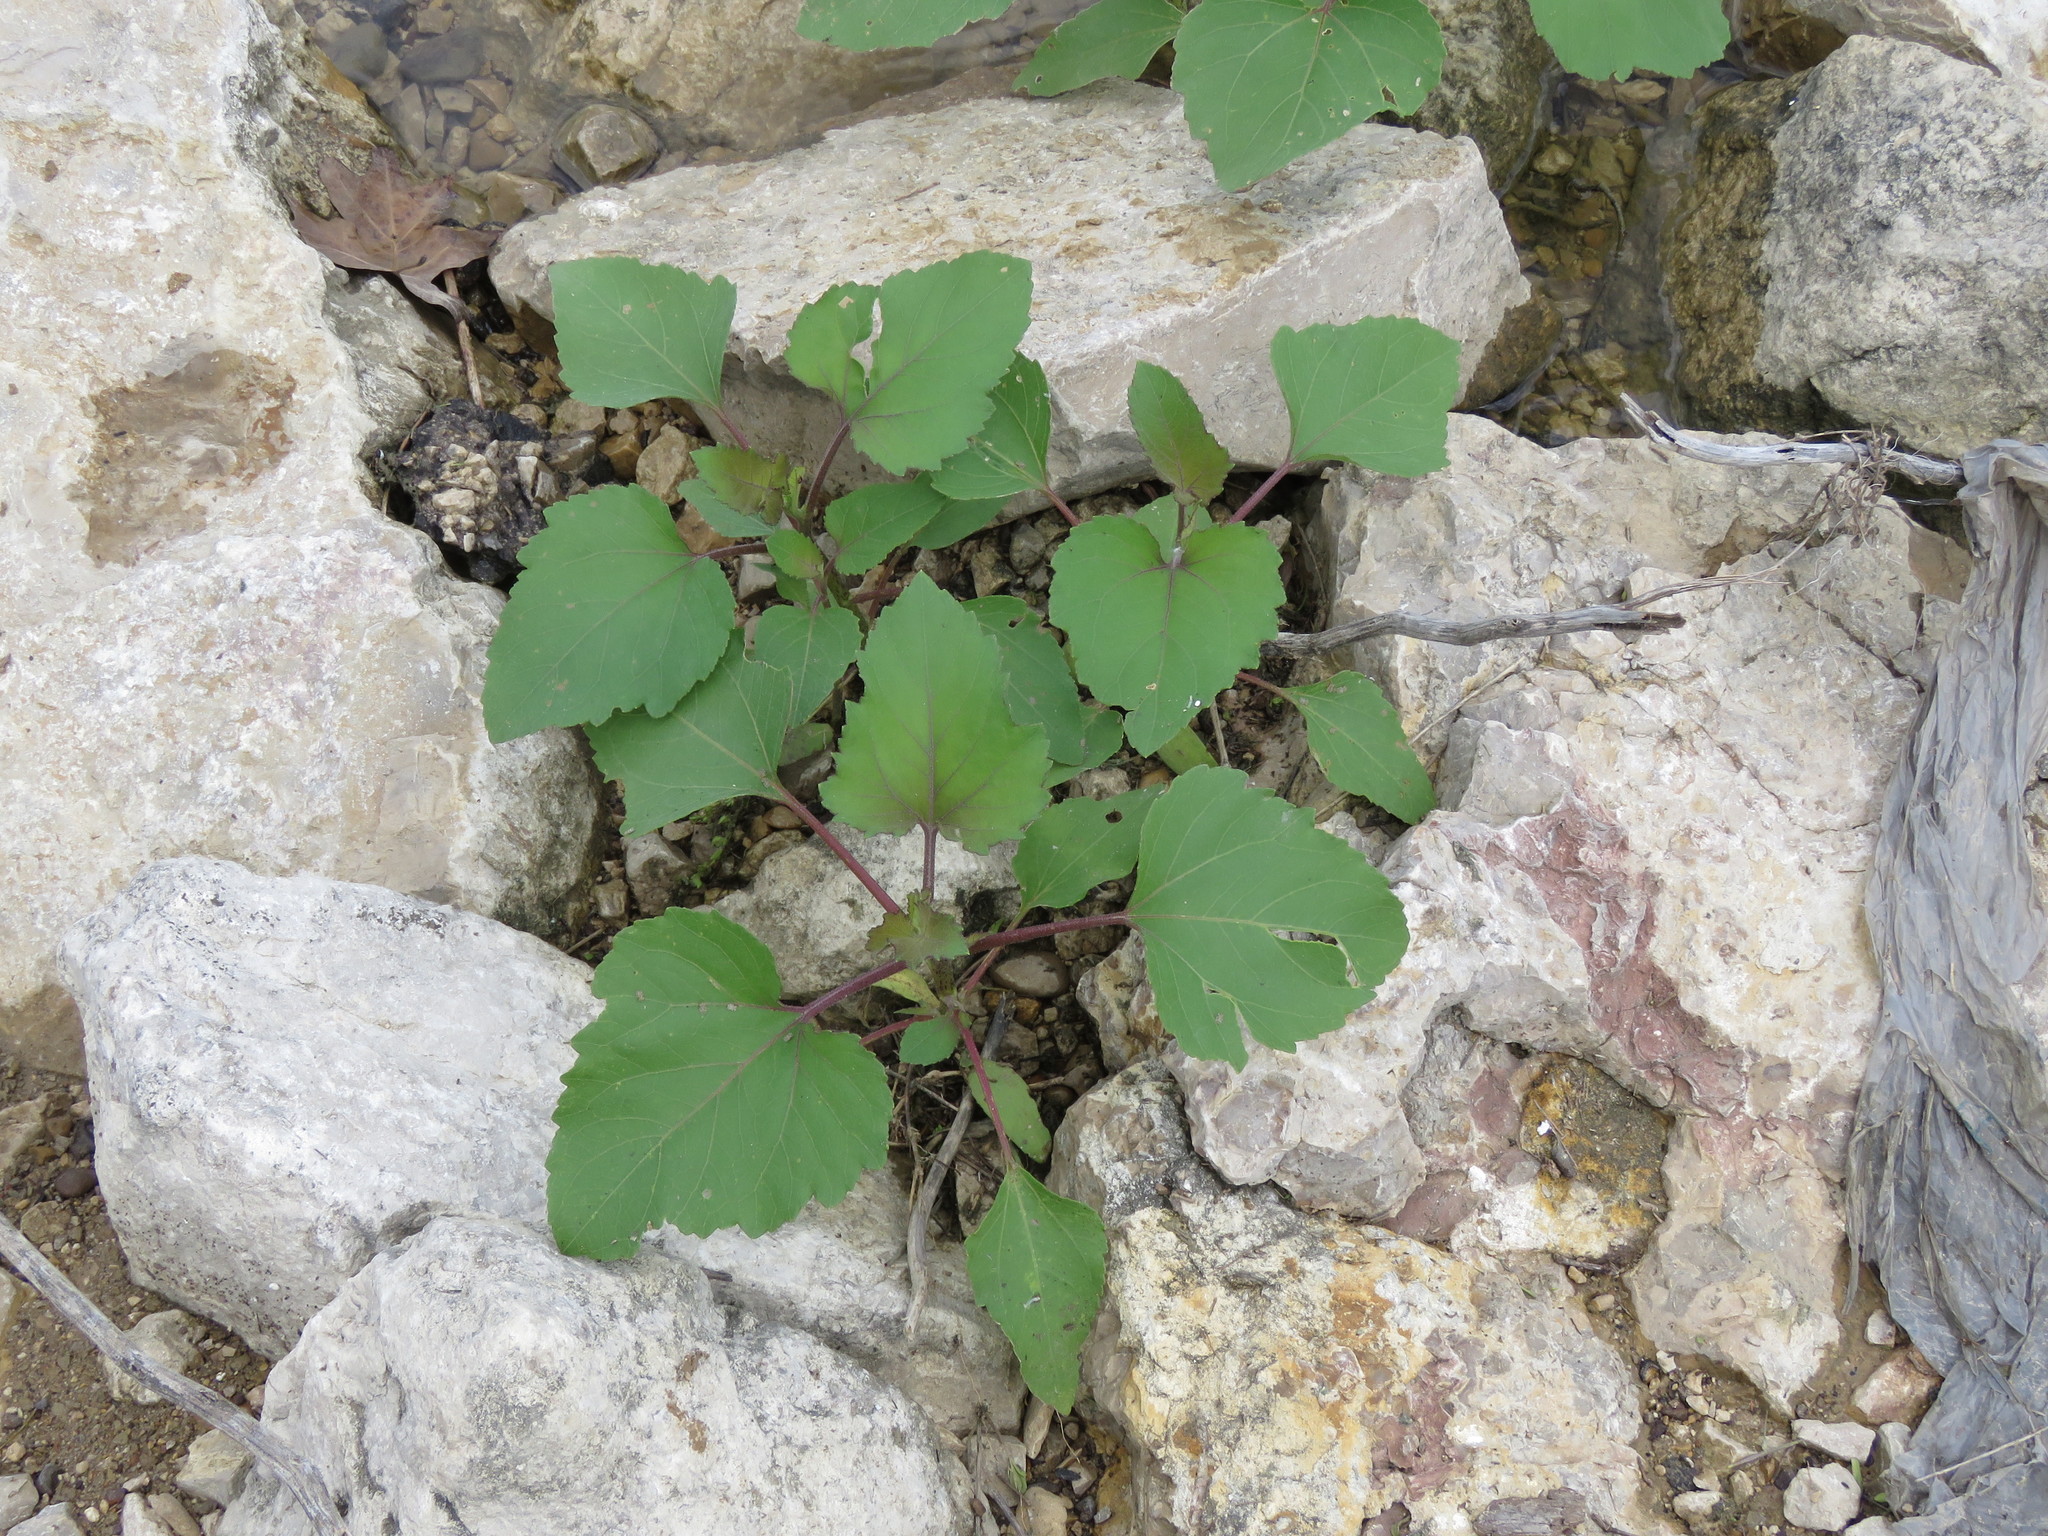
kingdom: Plantae
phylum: Tracheophyta
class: Magnoliopsida
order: Asterales
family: Asteraceae
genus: Xanthium
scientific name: Xanthium strumarium
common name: Rough cocklebur
